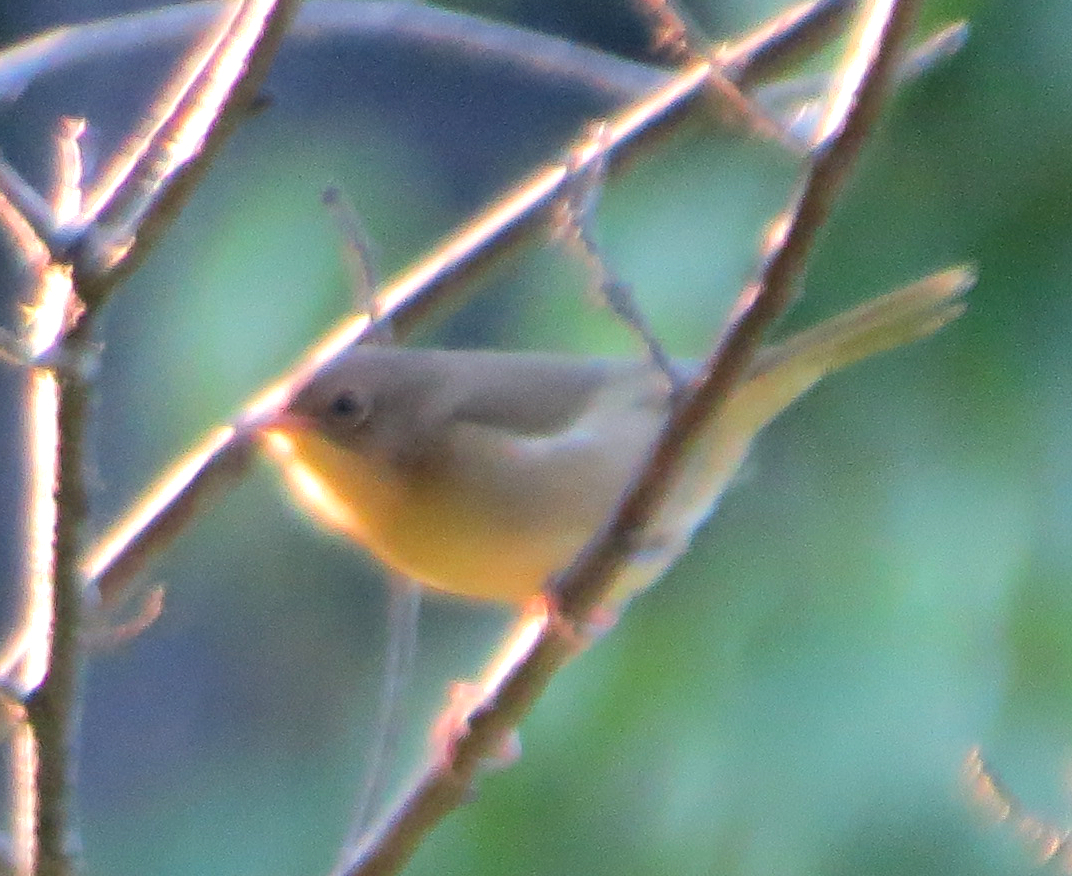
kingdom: Animalia
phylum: Chordata
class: Aves
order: Passeriformes
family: Parulidae
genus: Geothlypis
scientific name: Geothlypis trichas
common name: Common yellowthroat
